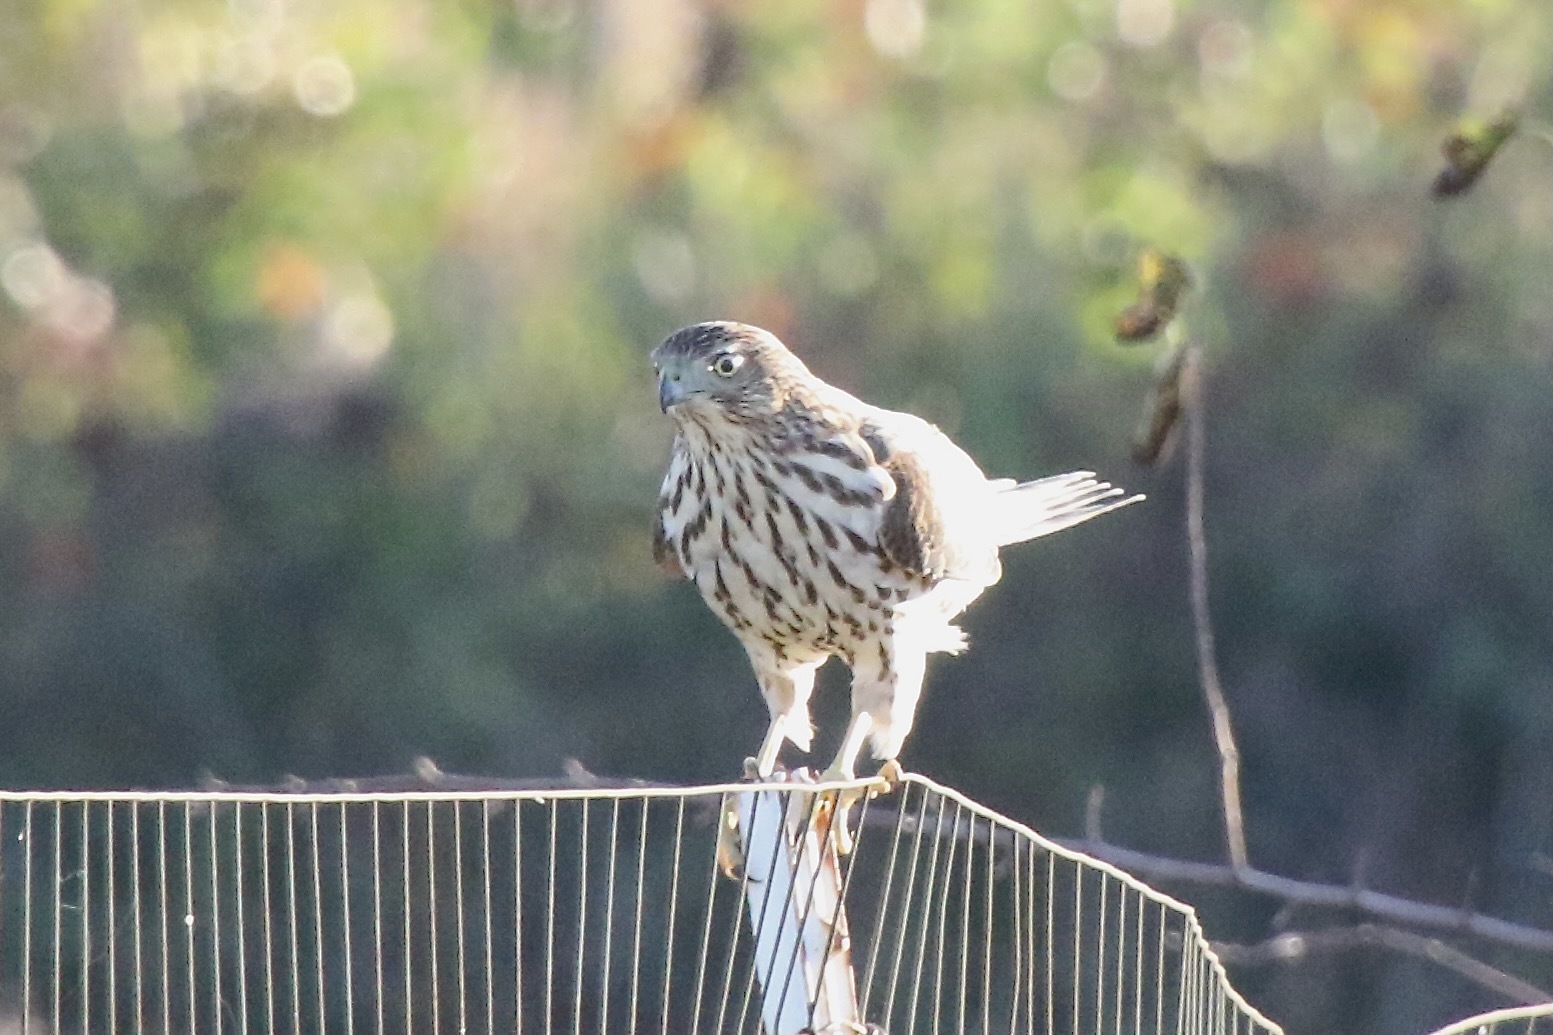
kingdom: Animalia
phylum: Chordata
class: Aves
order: Accipitriformes
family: Accipitridae
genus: Accipiter
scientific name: Accipiter cooperii
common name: Cooper's hawk
